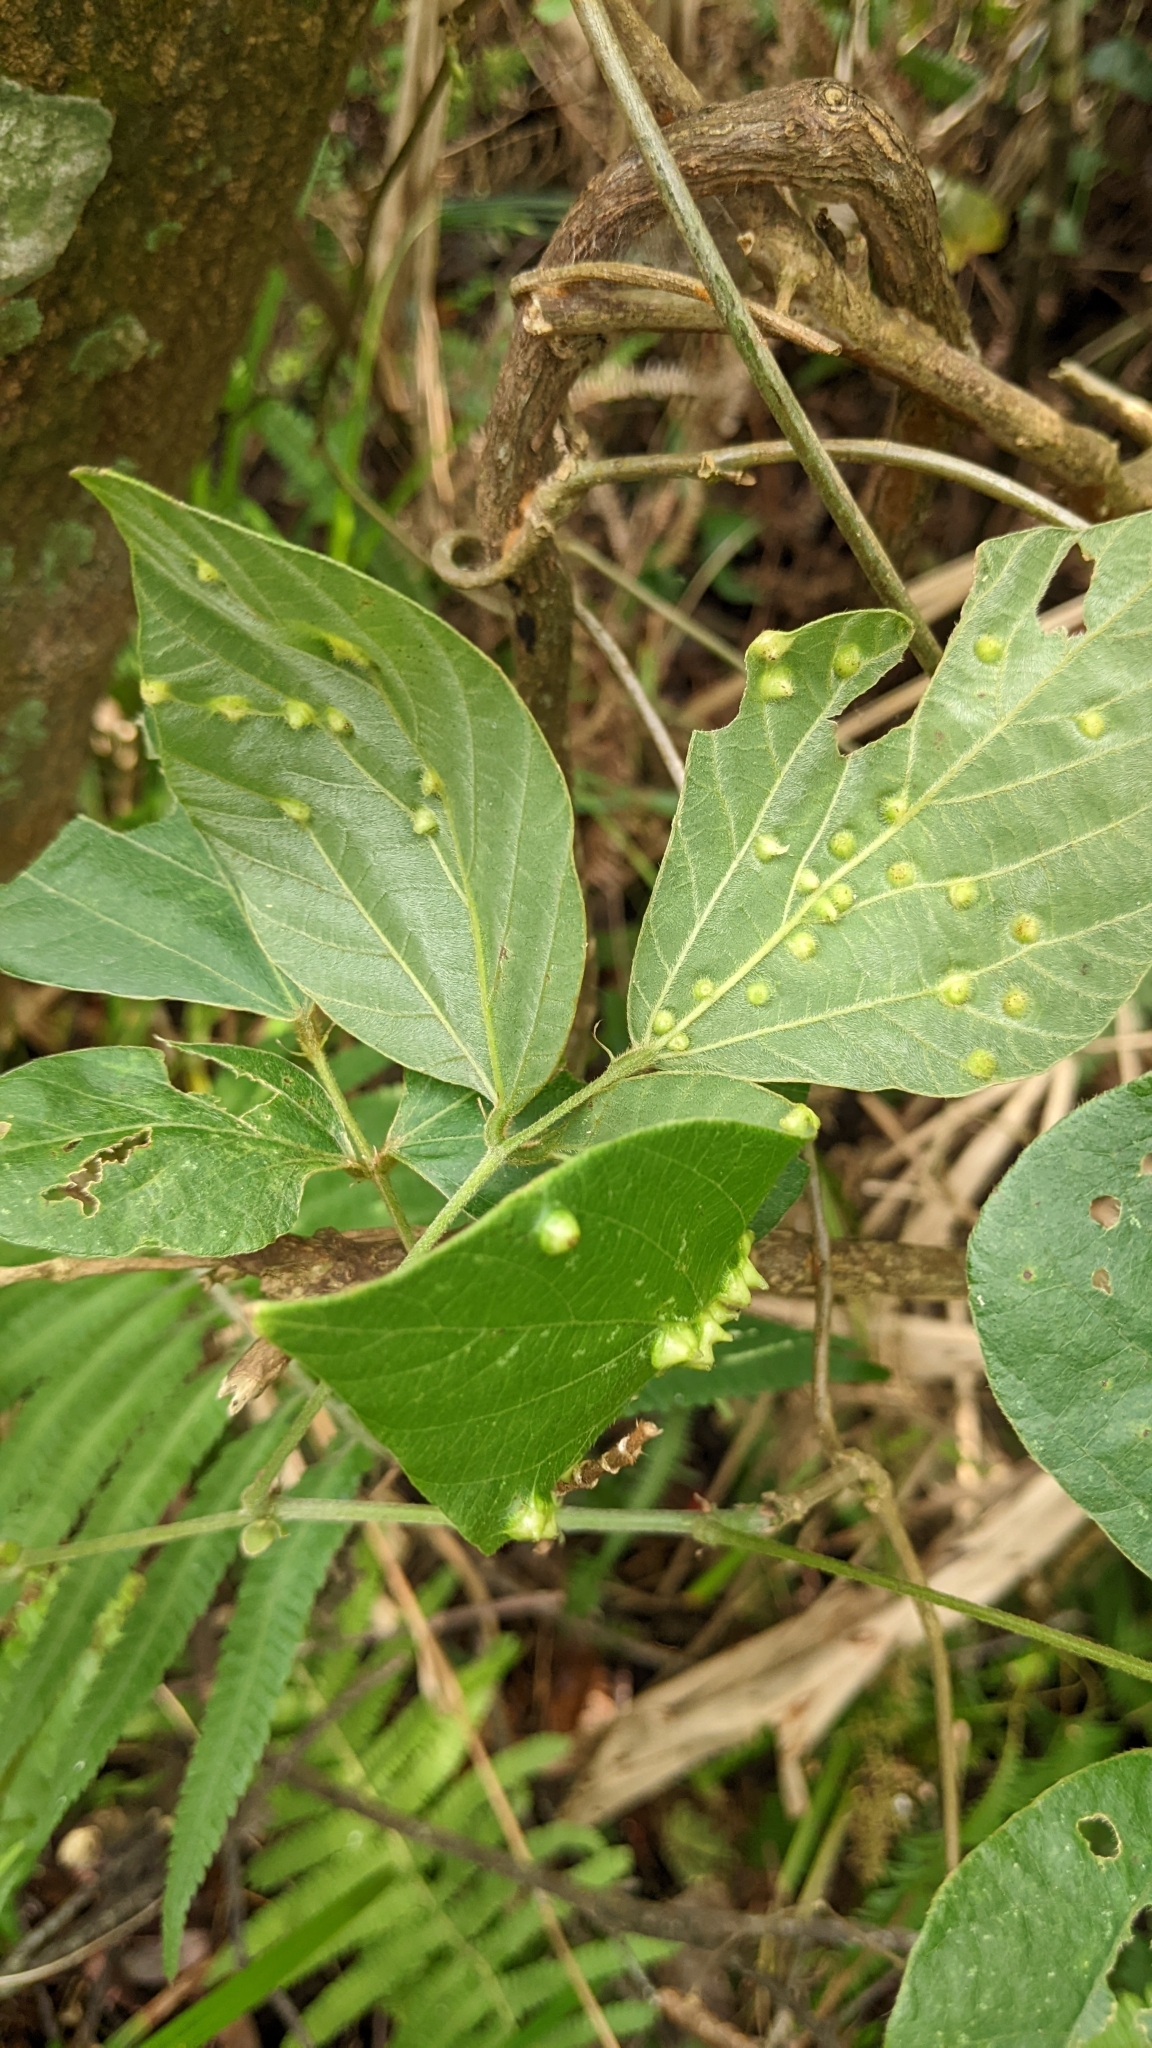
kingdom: Plantae
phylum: Tracheophyta
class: Magnoliopsida
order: Fabales
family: Fabaceae
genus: Pueraria
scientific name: Pueraria montana
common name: Kudzu
